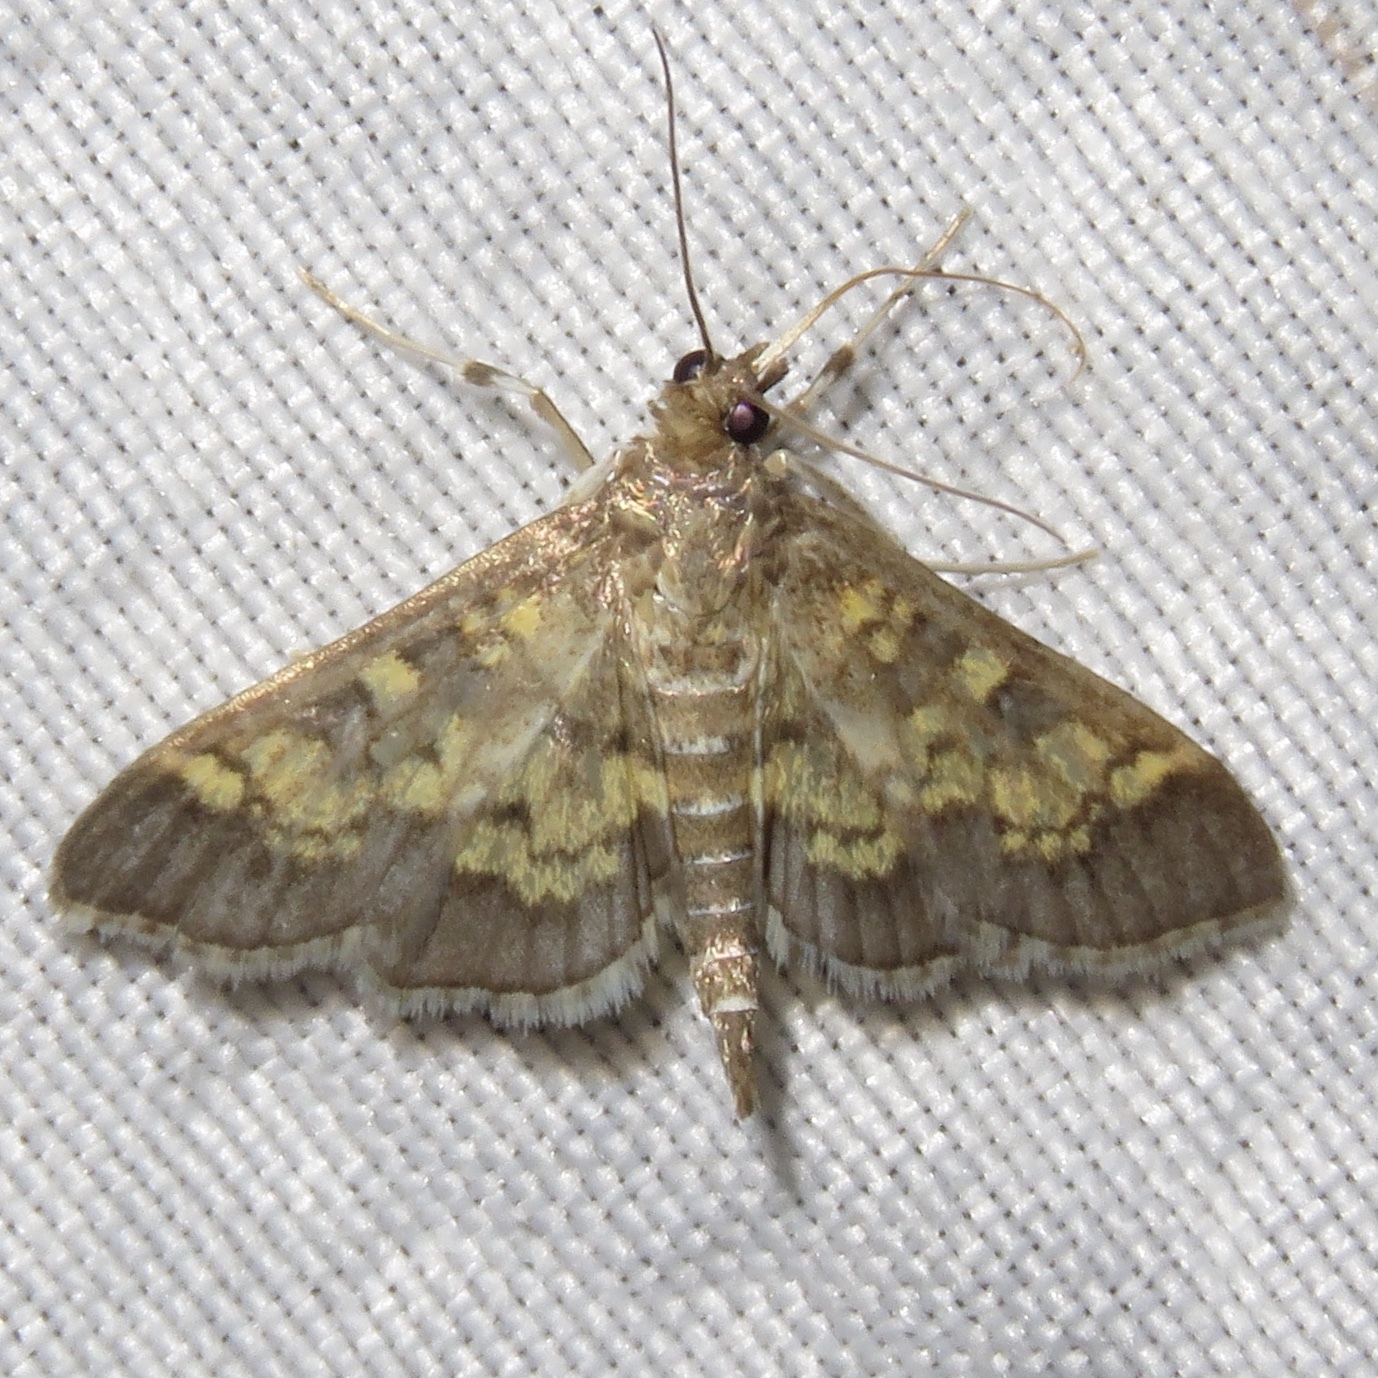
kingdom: Animalia
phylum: Arthropoda
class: Insecta
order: Lepidoptera
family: Crambidae
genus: Epipagis
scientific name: Epipagis adipaloides
